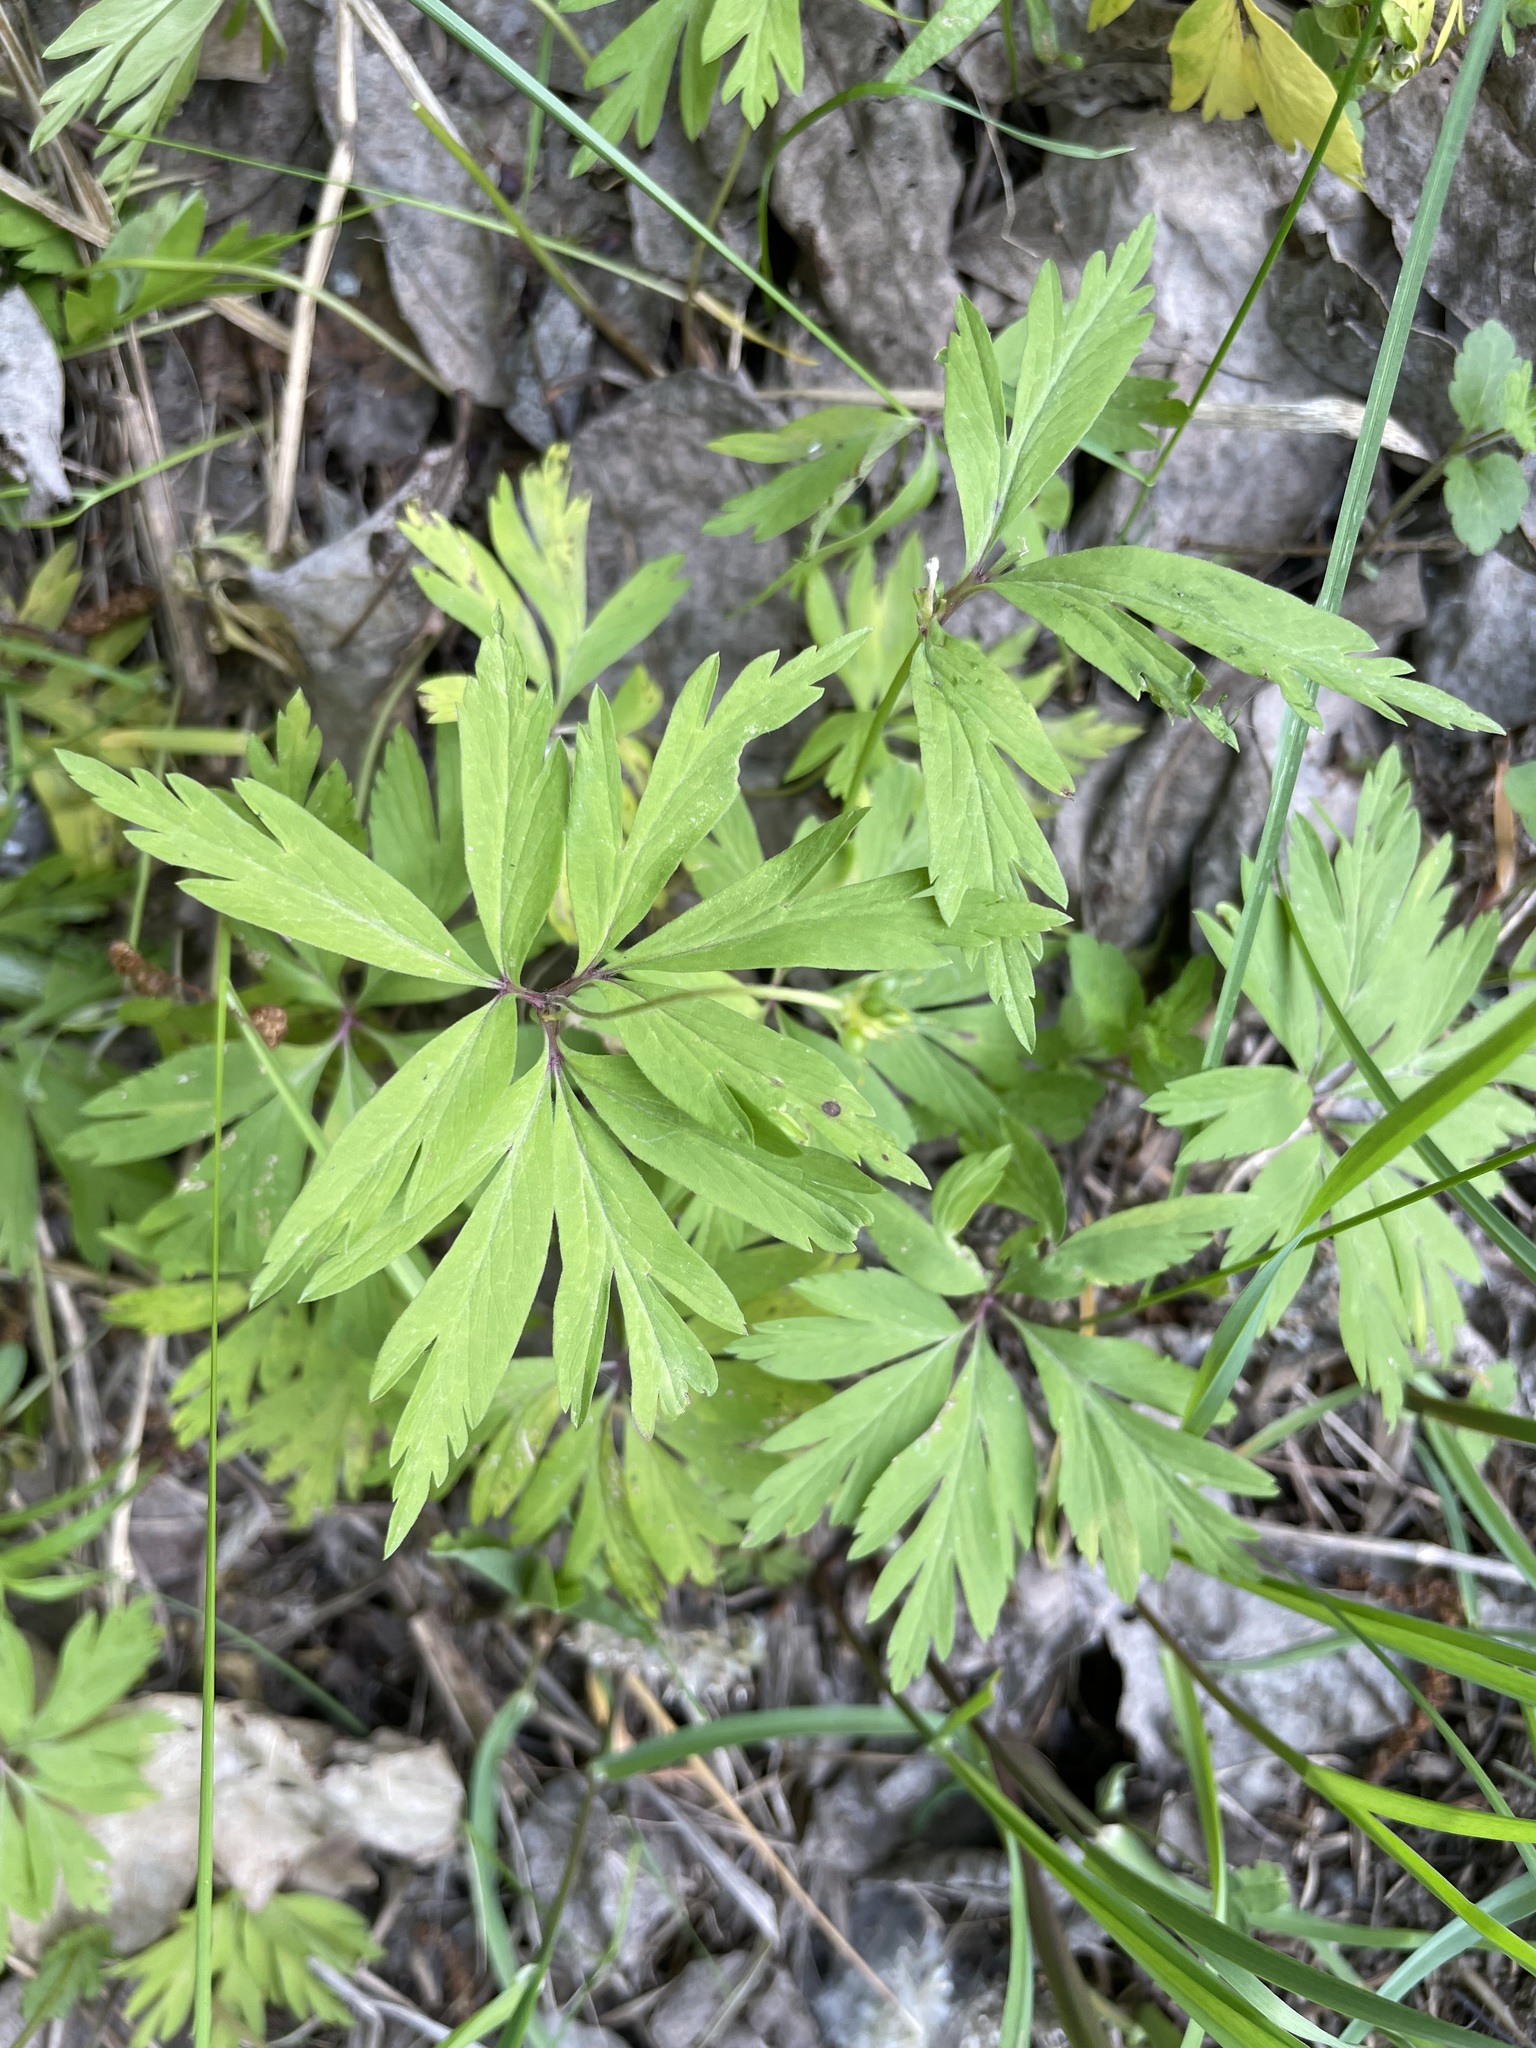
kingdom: Plantae
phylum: Tracheophyta
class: Magnoliopsida
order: Ranunculales
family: Ranunculaceae
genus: Anemone
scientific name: Anemone ranunculoides
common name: Yellow anemone
